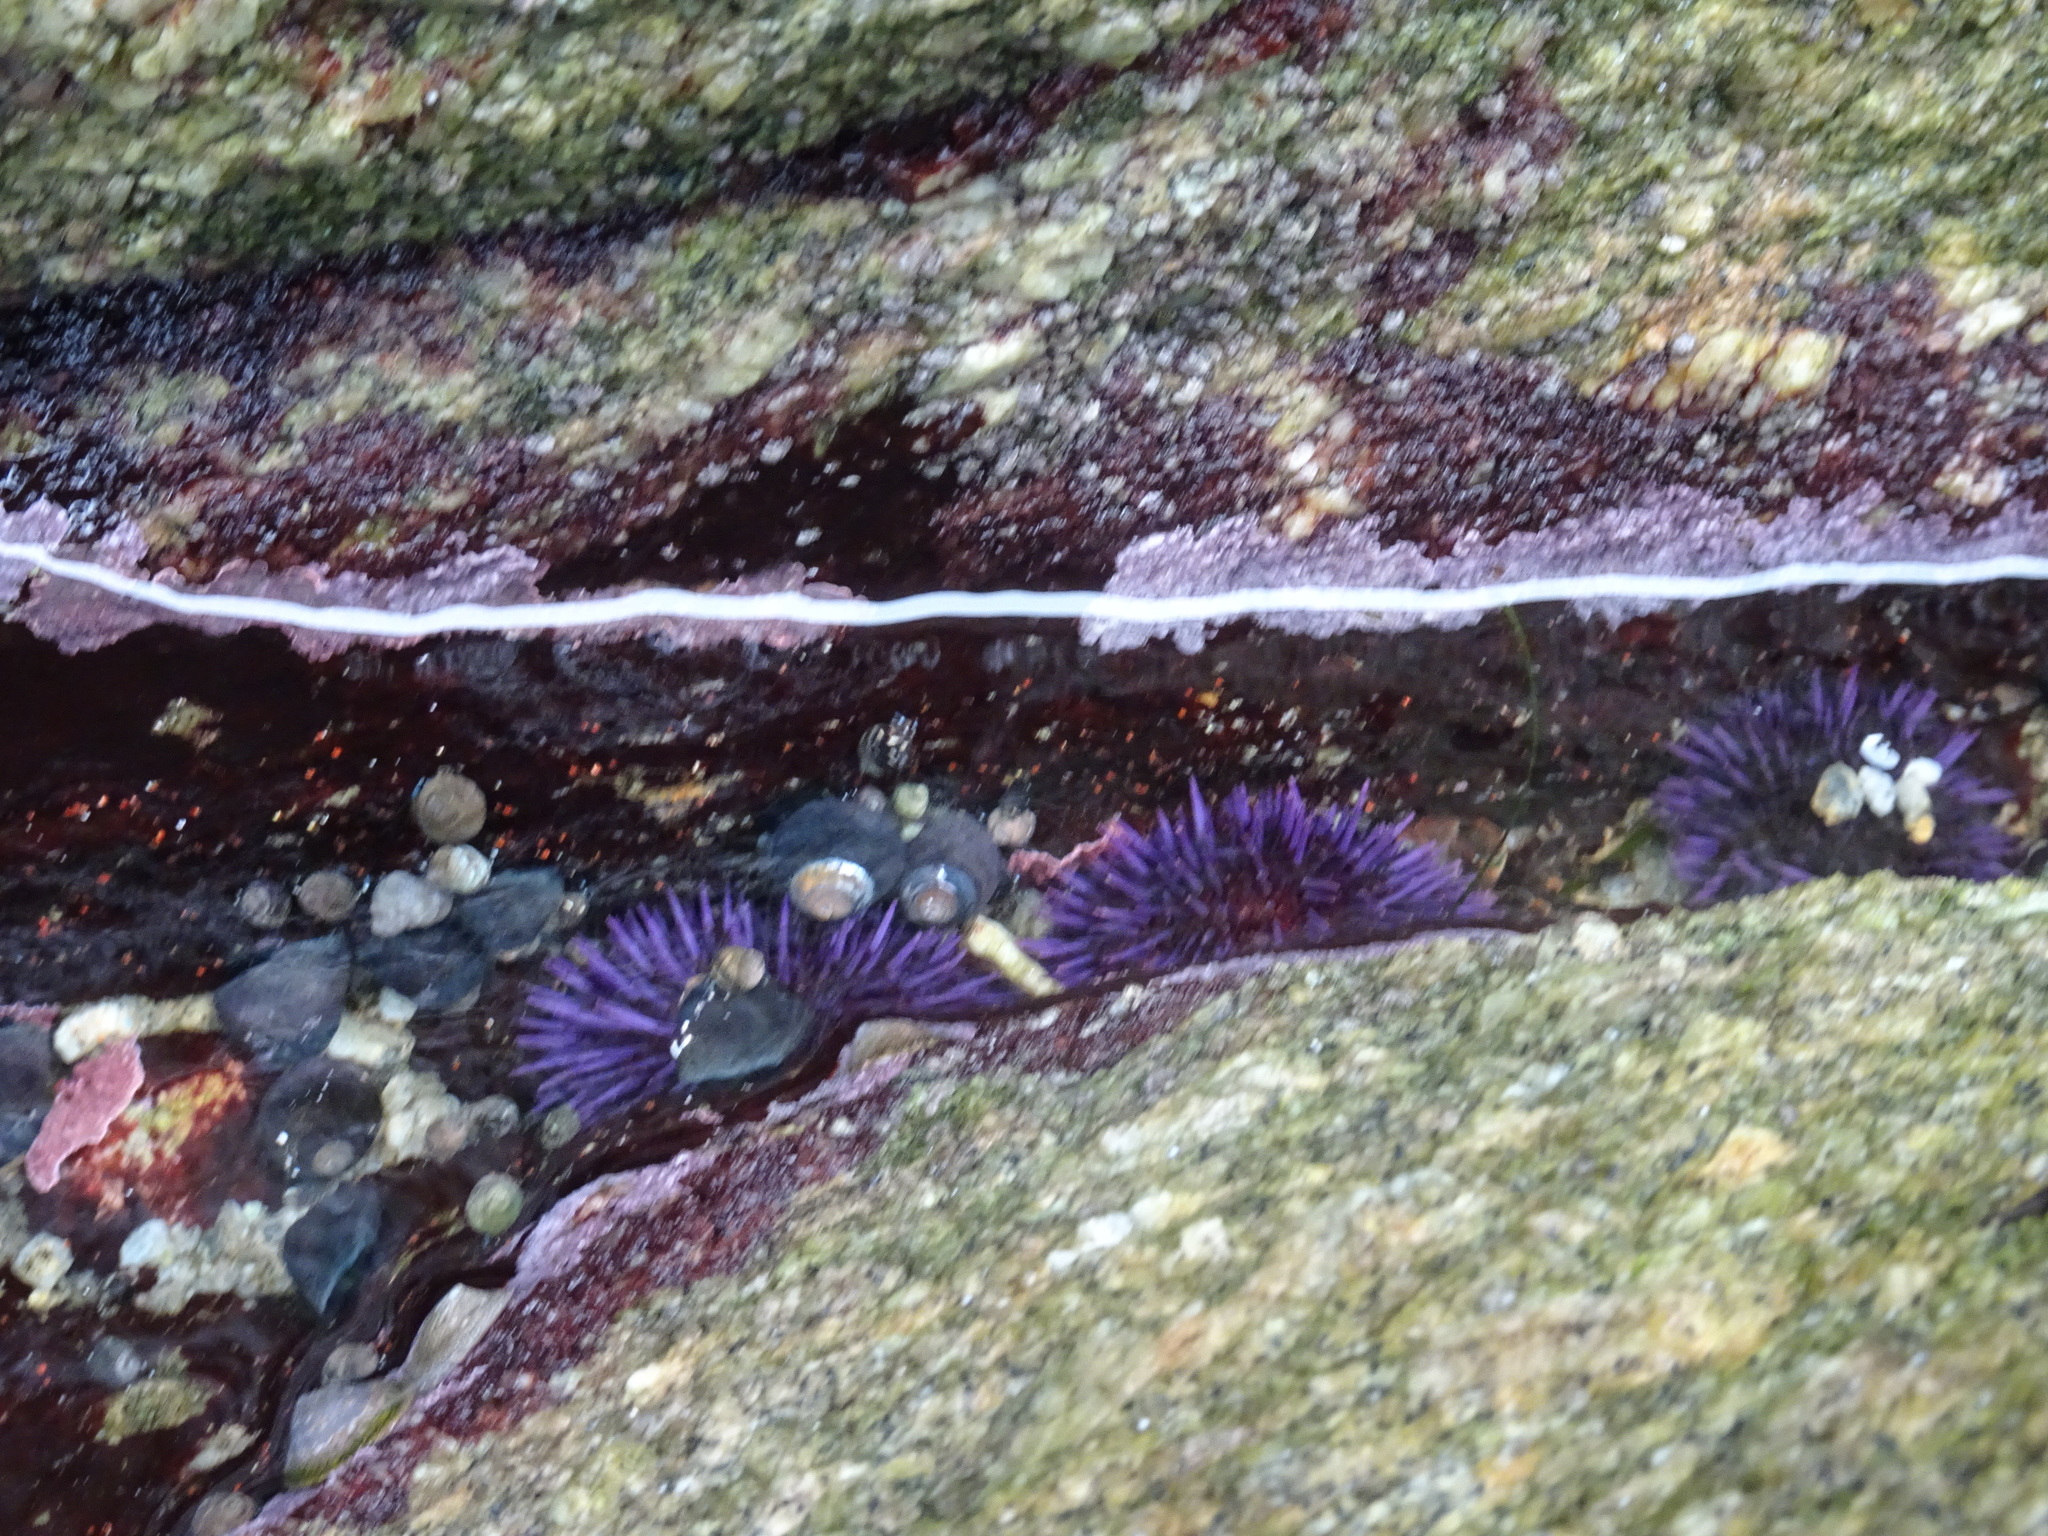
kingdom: Animalia
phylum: Echinodermata
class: Echinoidea
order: Camarodonta
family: Strongylocentrotidae
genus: Strongylocentrotus
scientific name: Strongylocentrotus purpuratus
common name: Purple sea urchin
